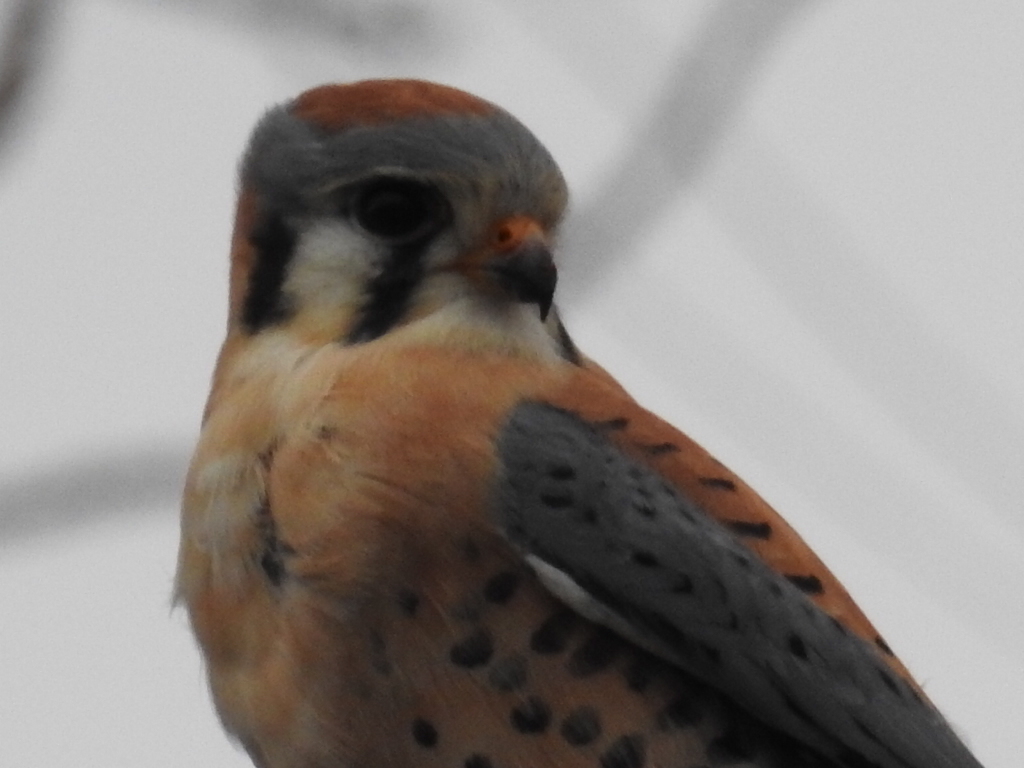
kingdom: Animalia
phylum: Chordata
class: Aves
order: Falconiformes
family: Falconidae
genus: Falco
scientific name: Falco sparverius
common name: American kestrel
